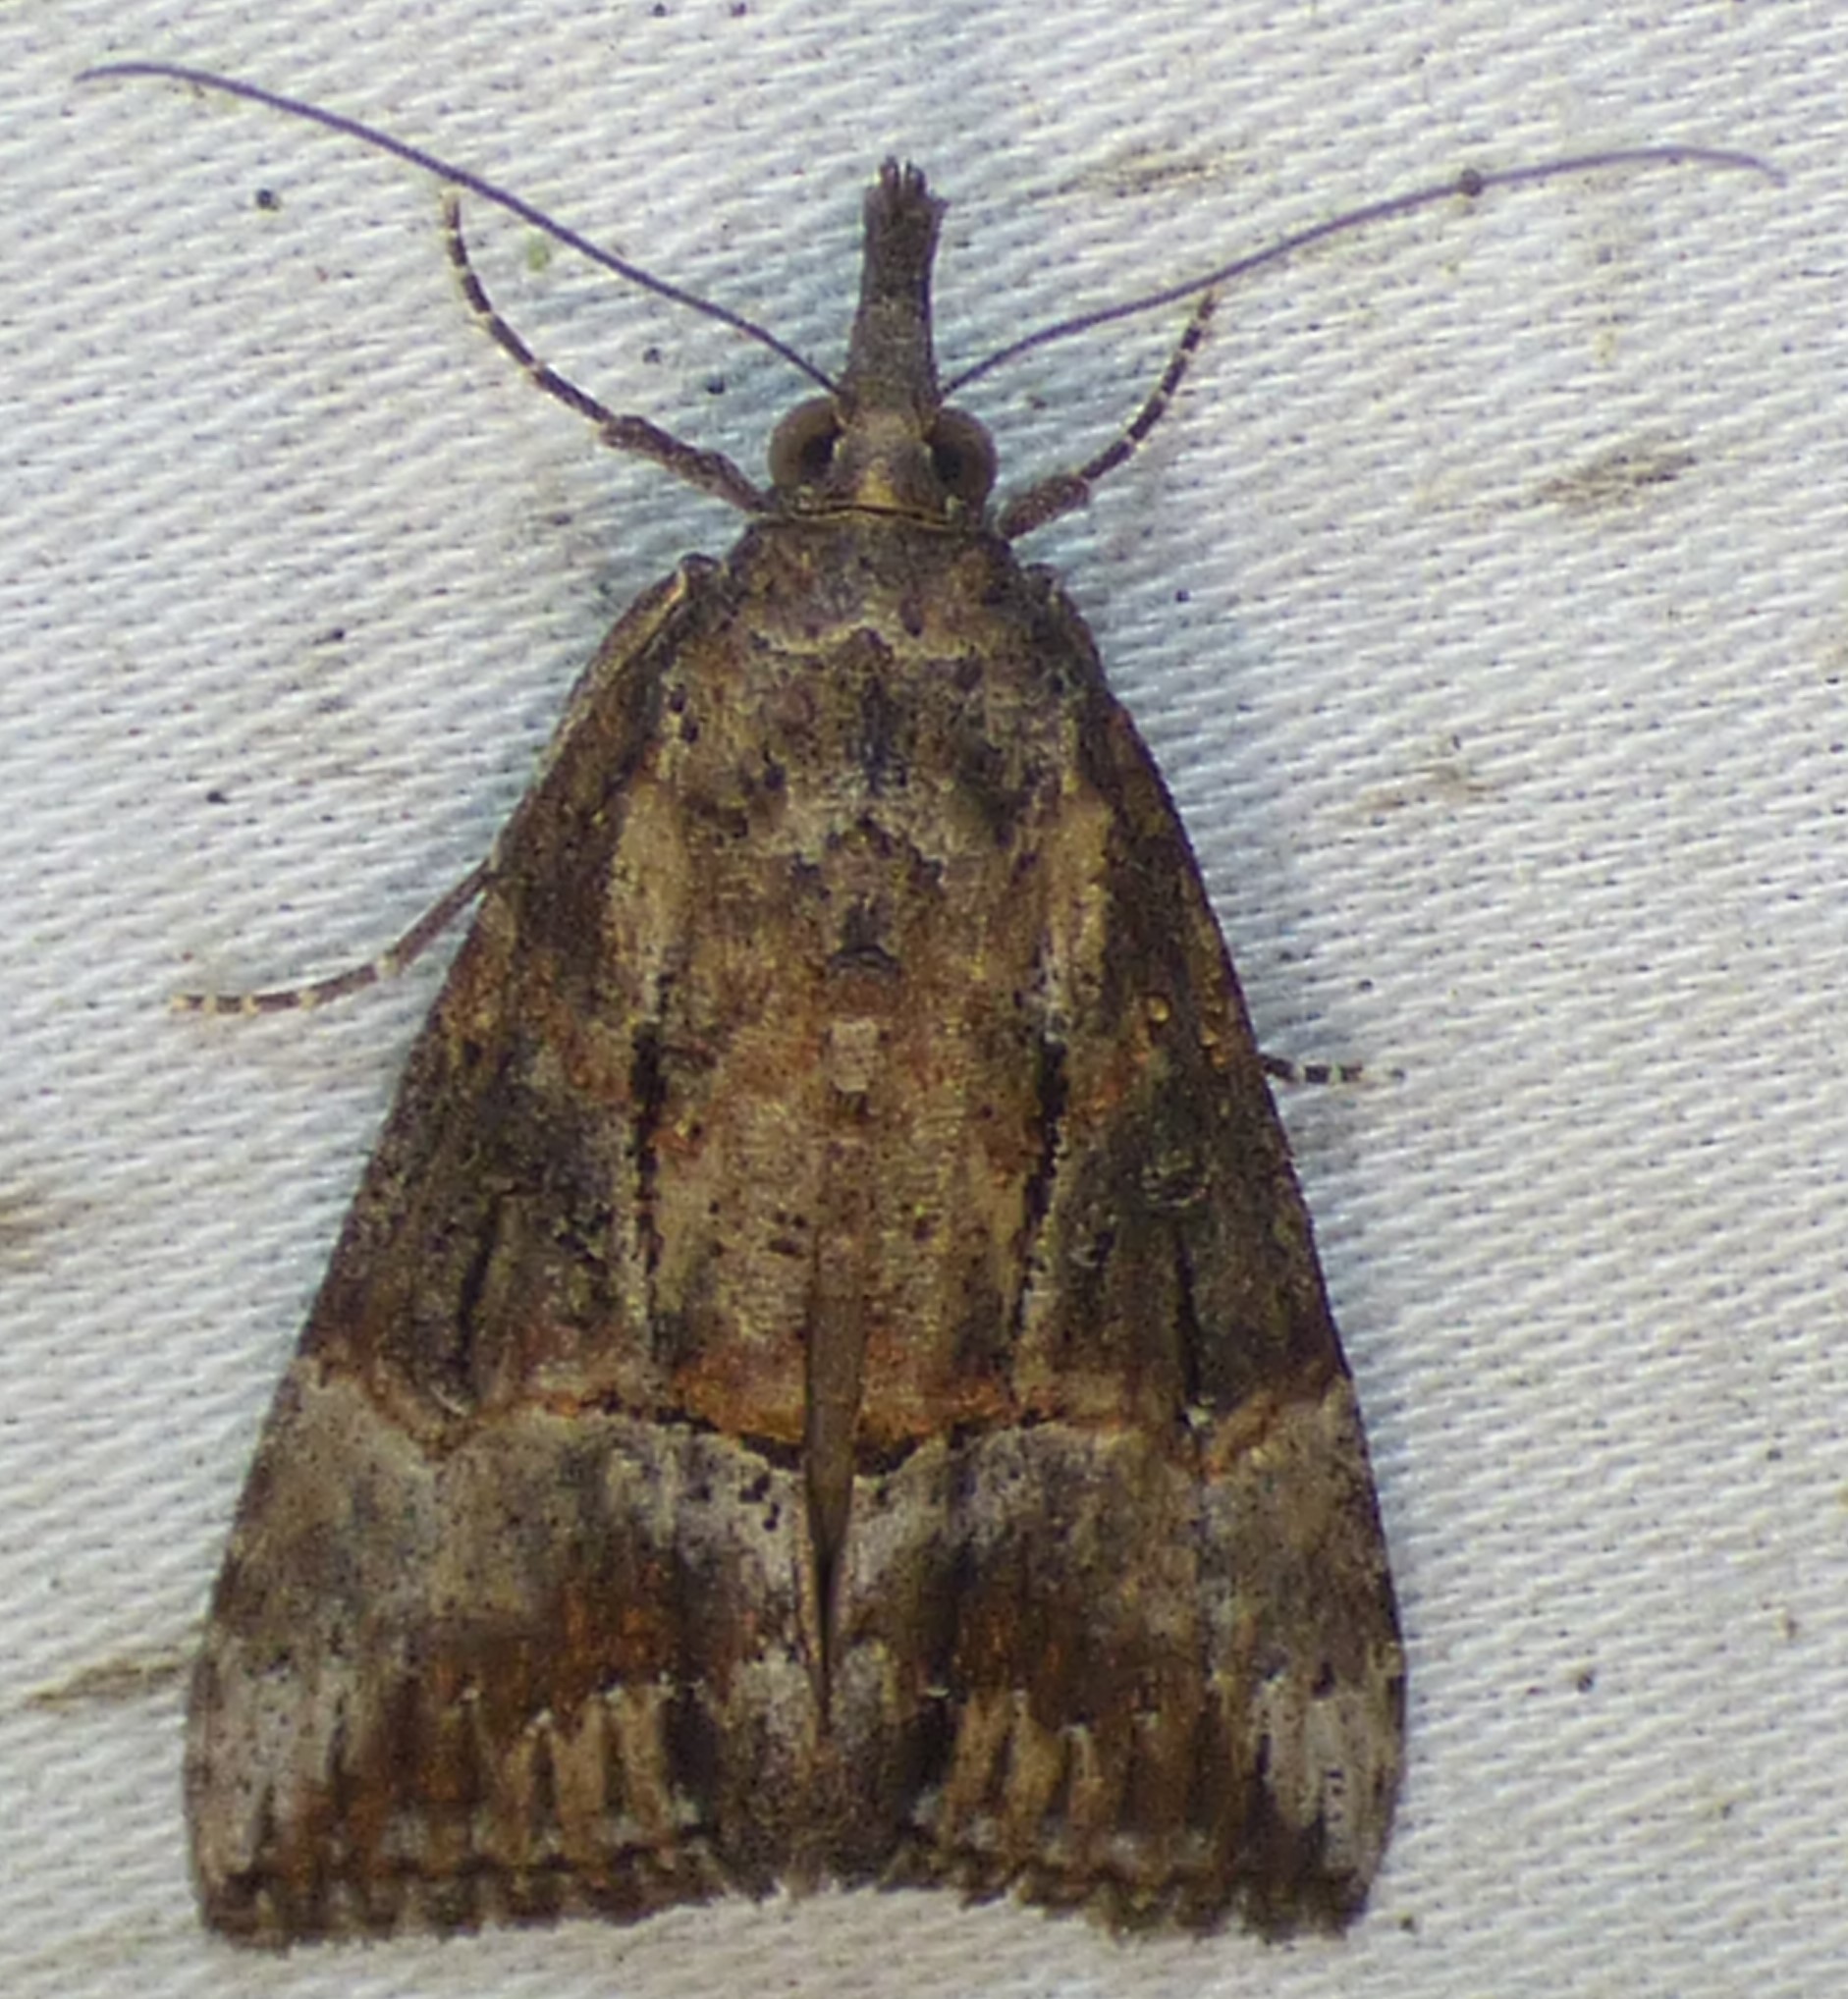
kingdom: Animalia
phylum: Arthropoda
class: Insecta
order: Lepidoptera
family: Erebidae
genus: Hypena
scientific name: Hypena scabra
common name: Green cloverworm
